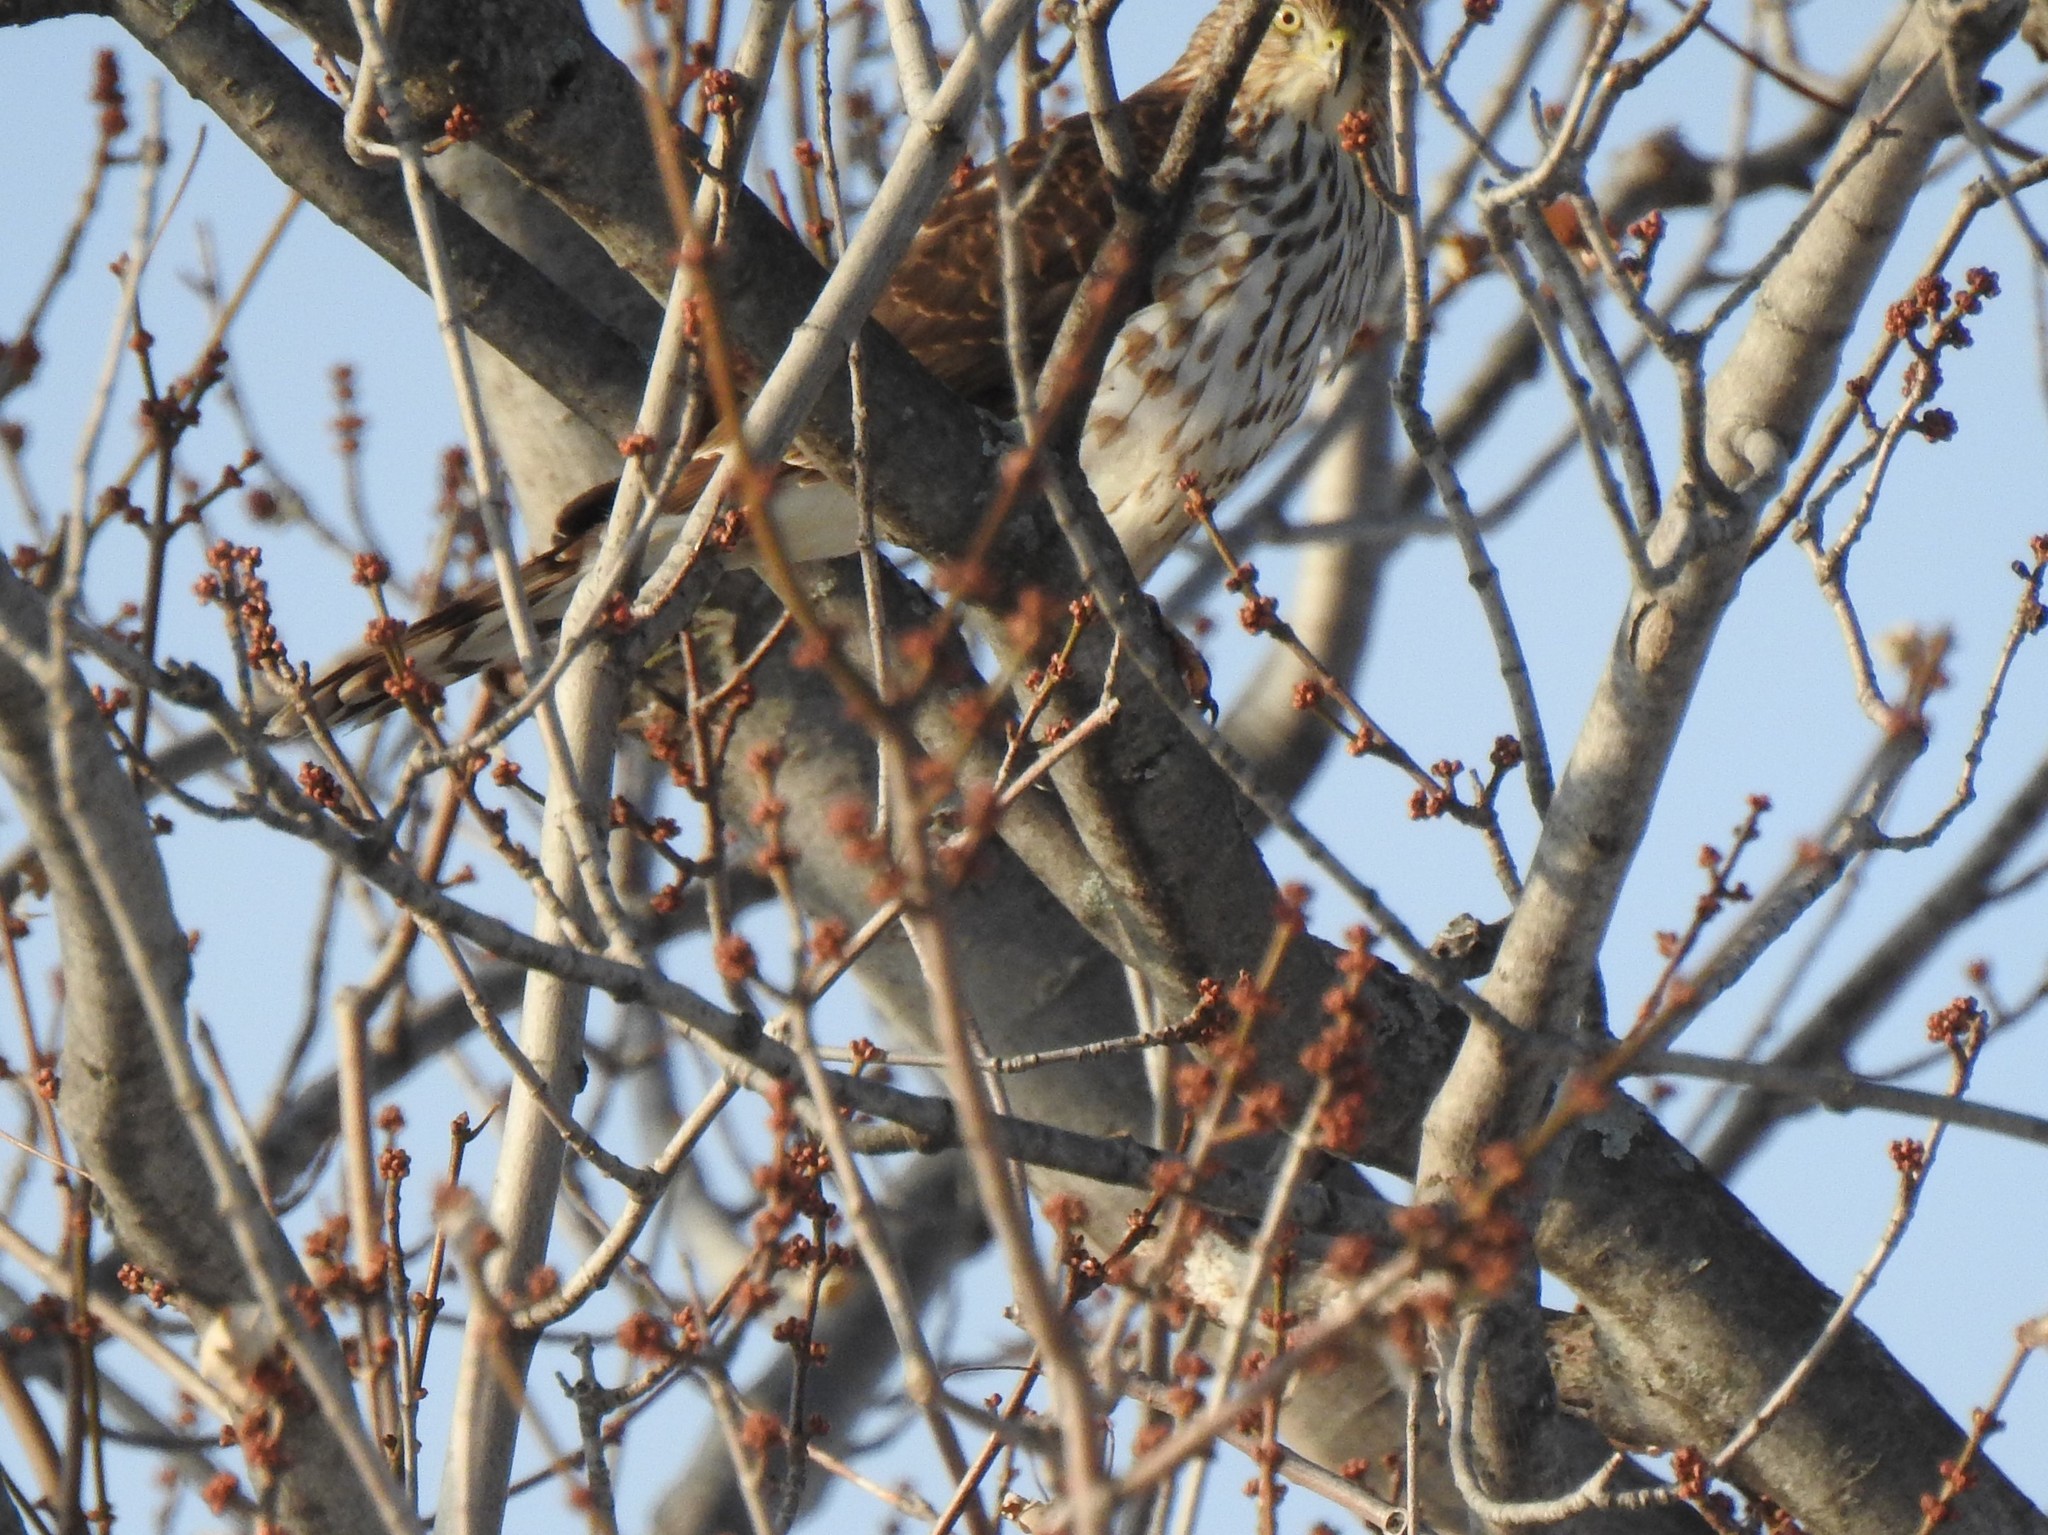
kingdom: Animalia
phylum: Chordata
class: Aves
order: Accipitriformes
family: Accipitridae
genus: Accipiter
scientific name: Accipiter cooperii
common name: Cooper's hawk
